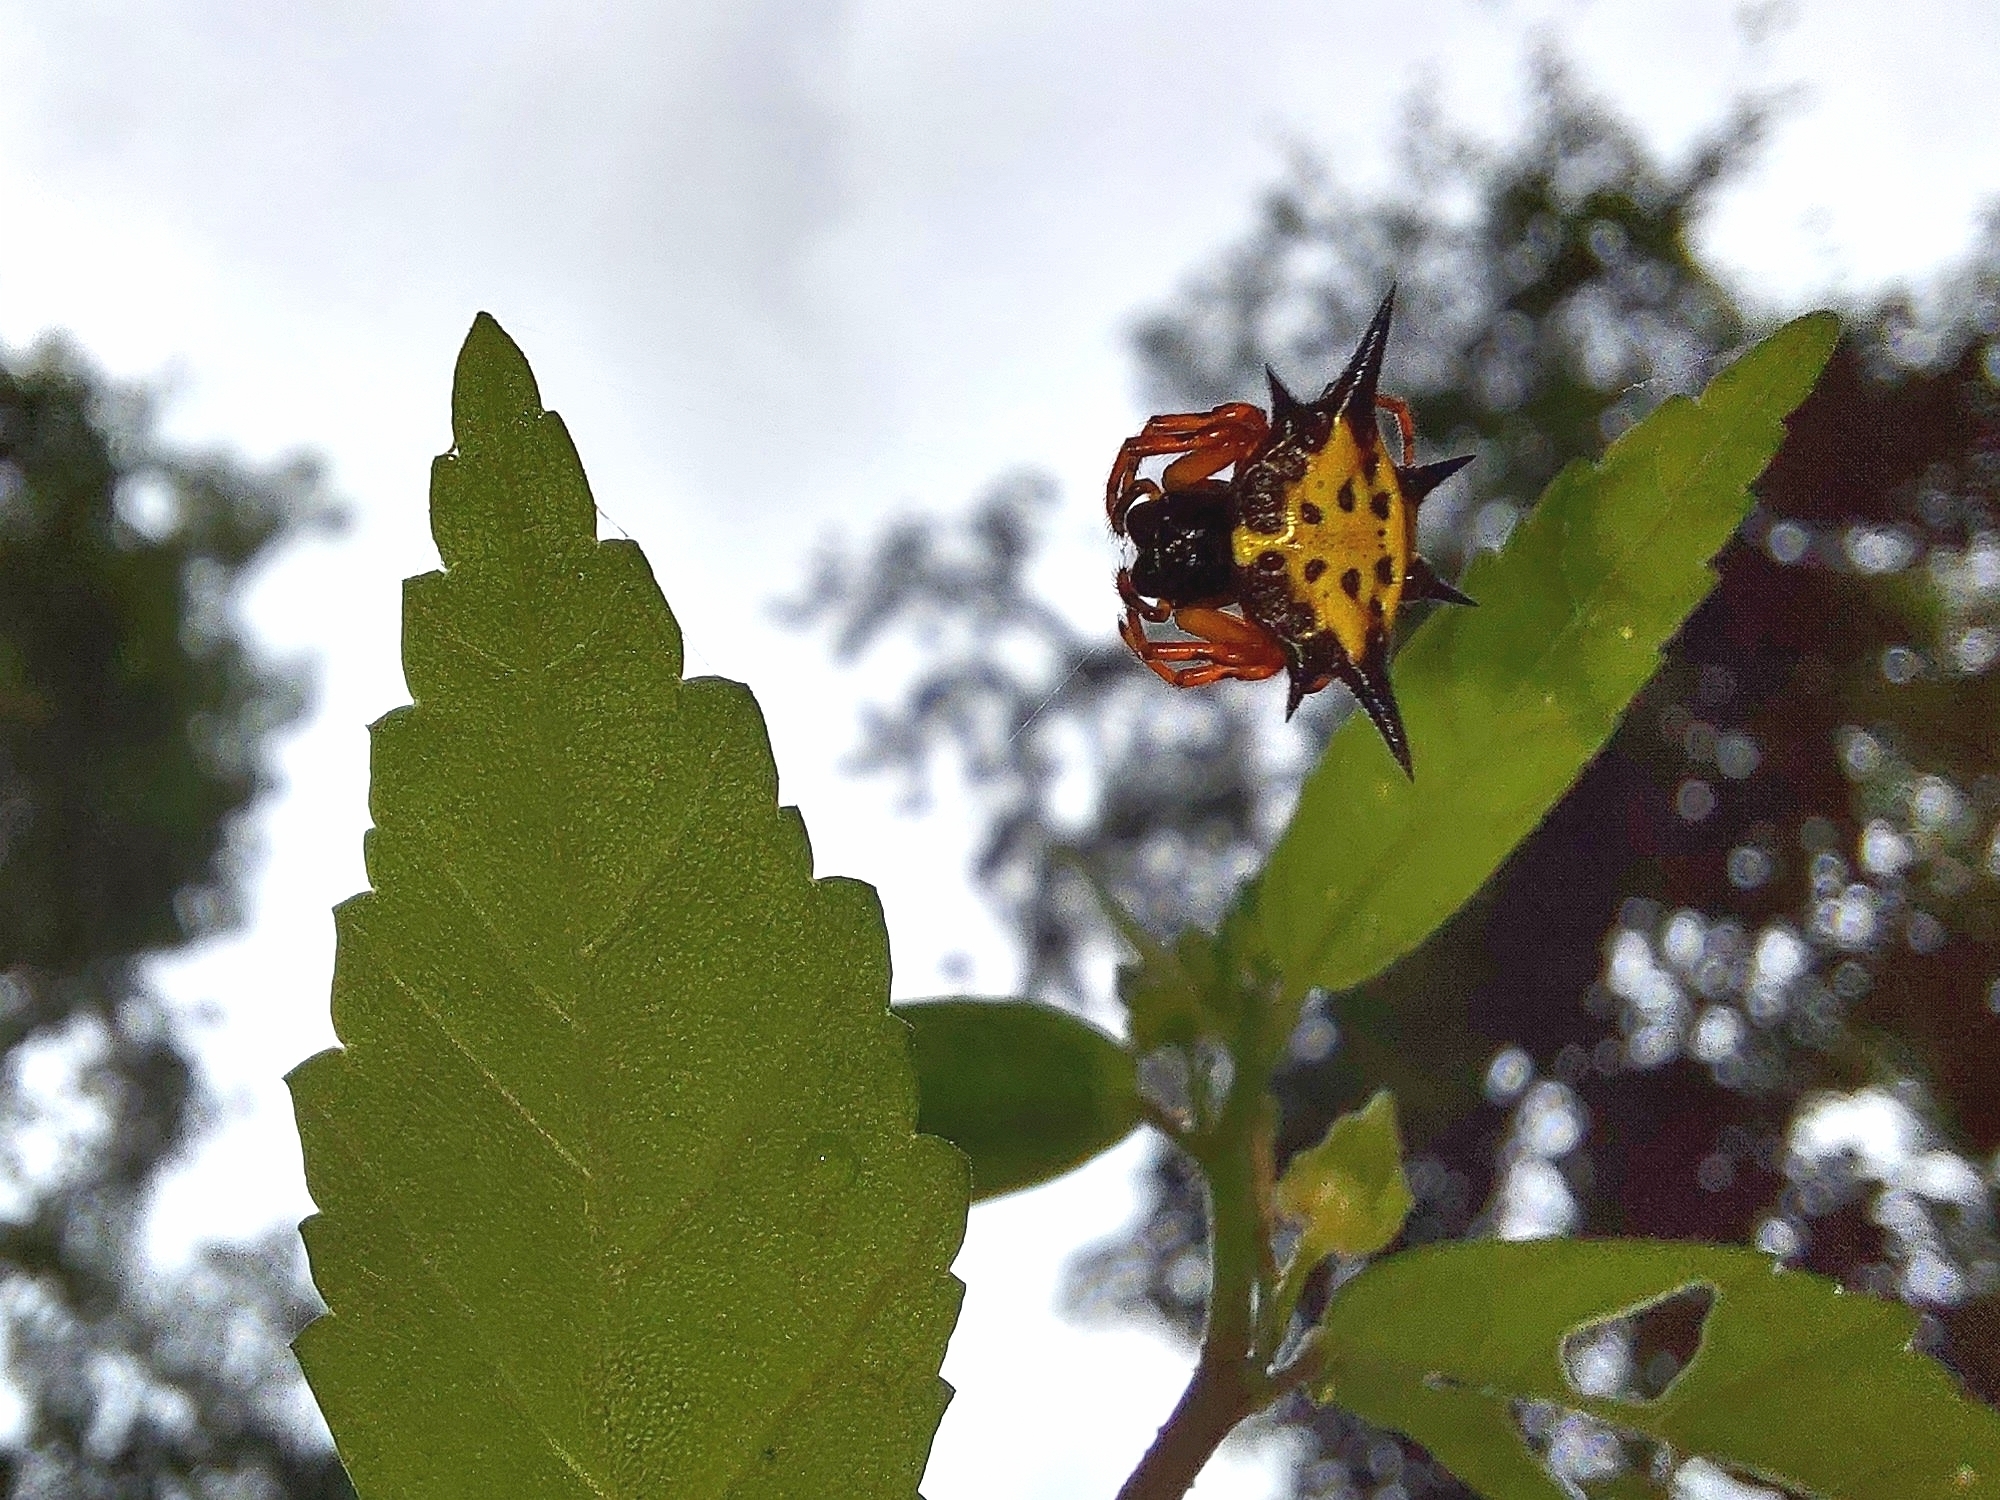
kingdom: Animalia
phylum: Arthropoda
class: Arachnida
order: Araneae
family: Araneidae
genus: Macracantha
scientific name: Macracantha hasselti
